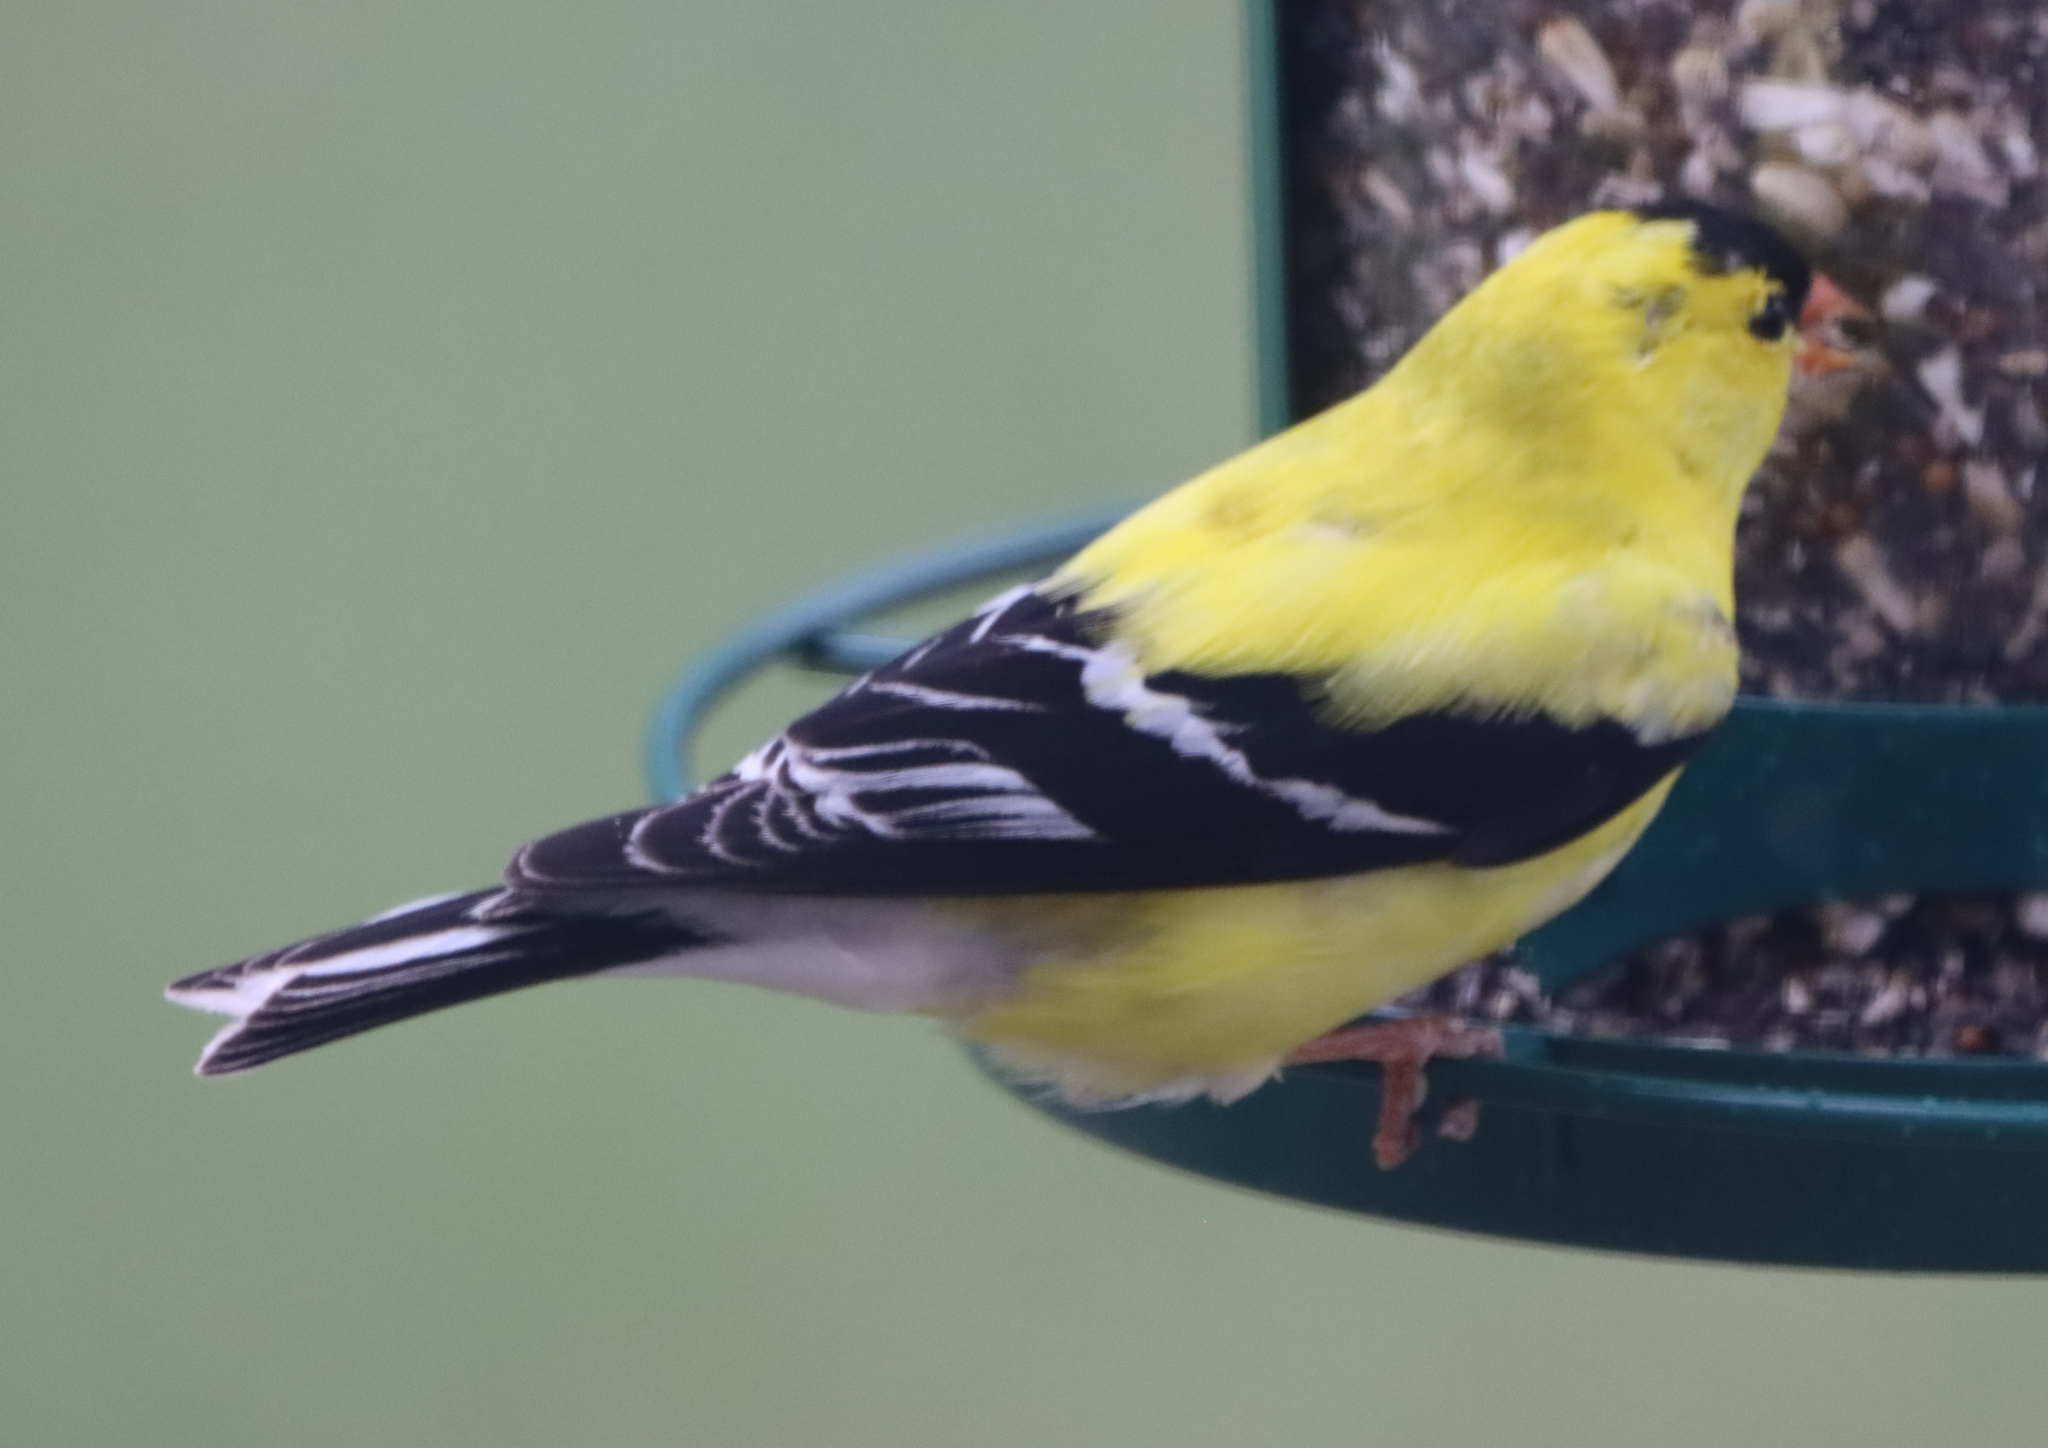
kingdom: Animalia
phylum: Chordata
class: Aves
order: Passeriformes
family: Fringillidae
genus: Spinus
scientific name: Spinus tristis
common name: American goldfinch
